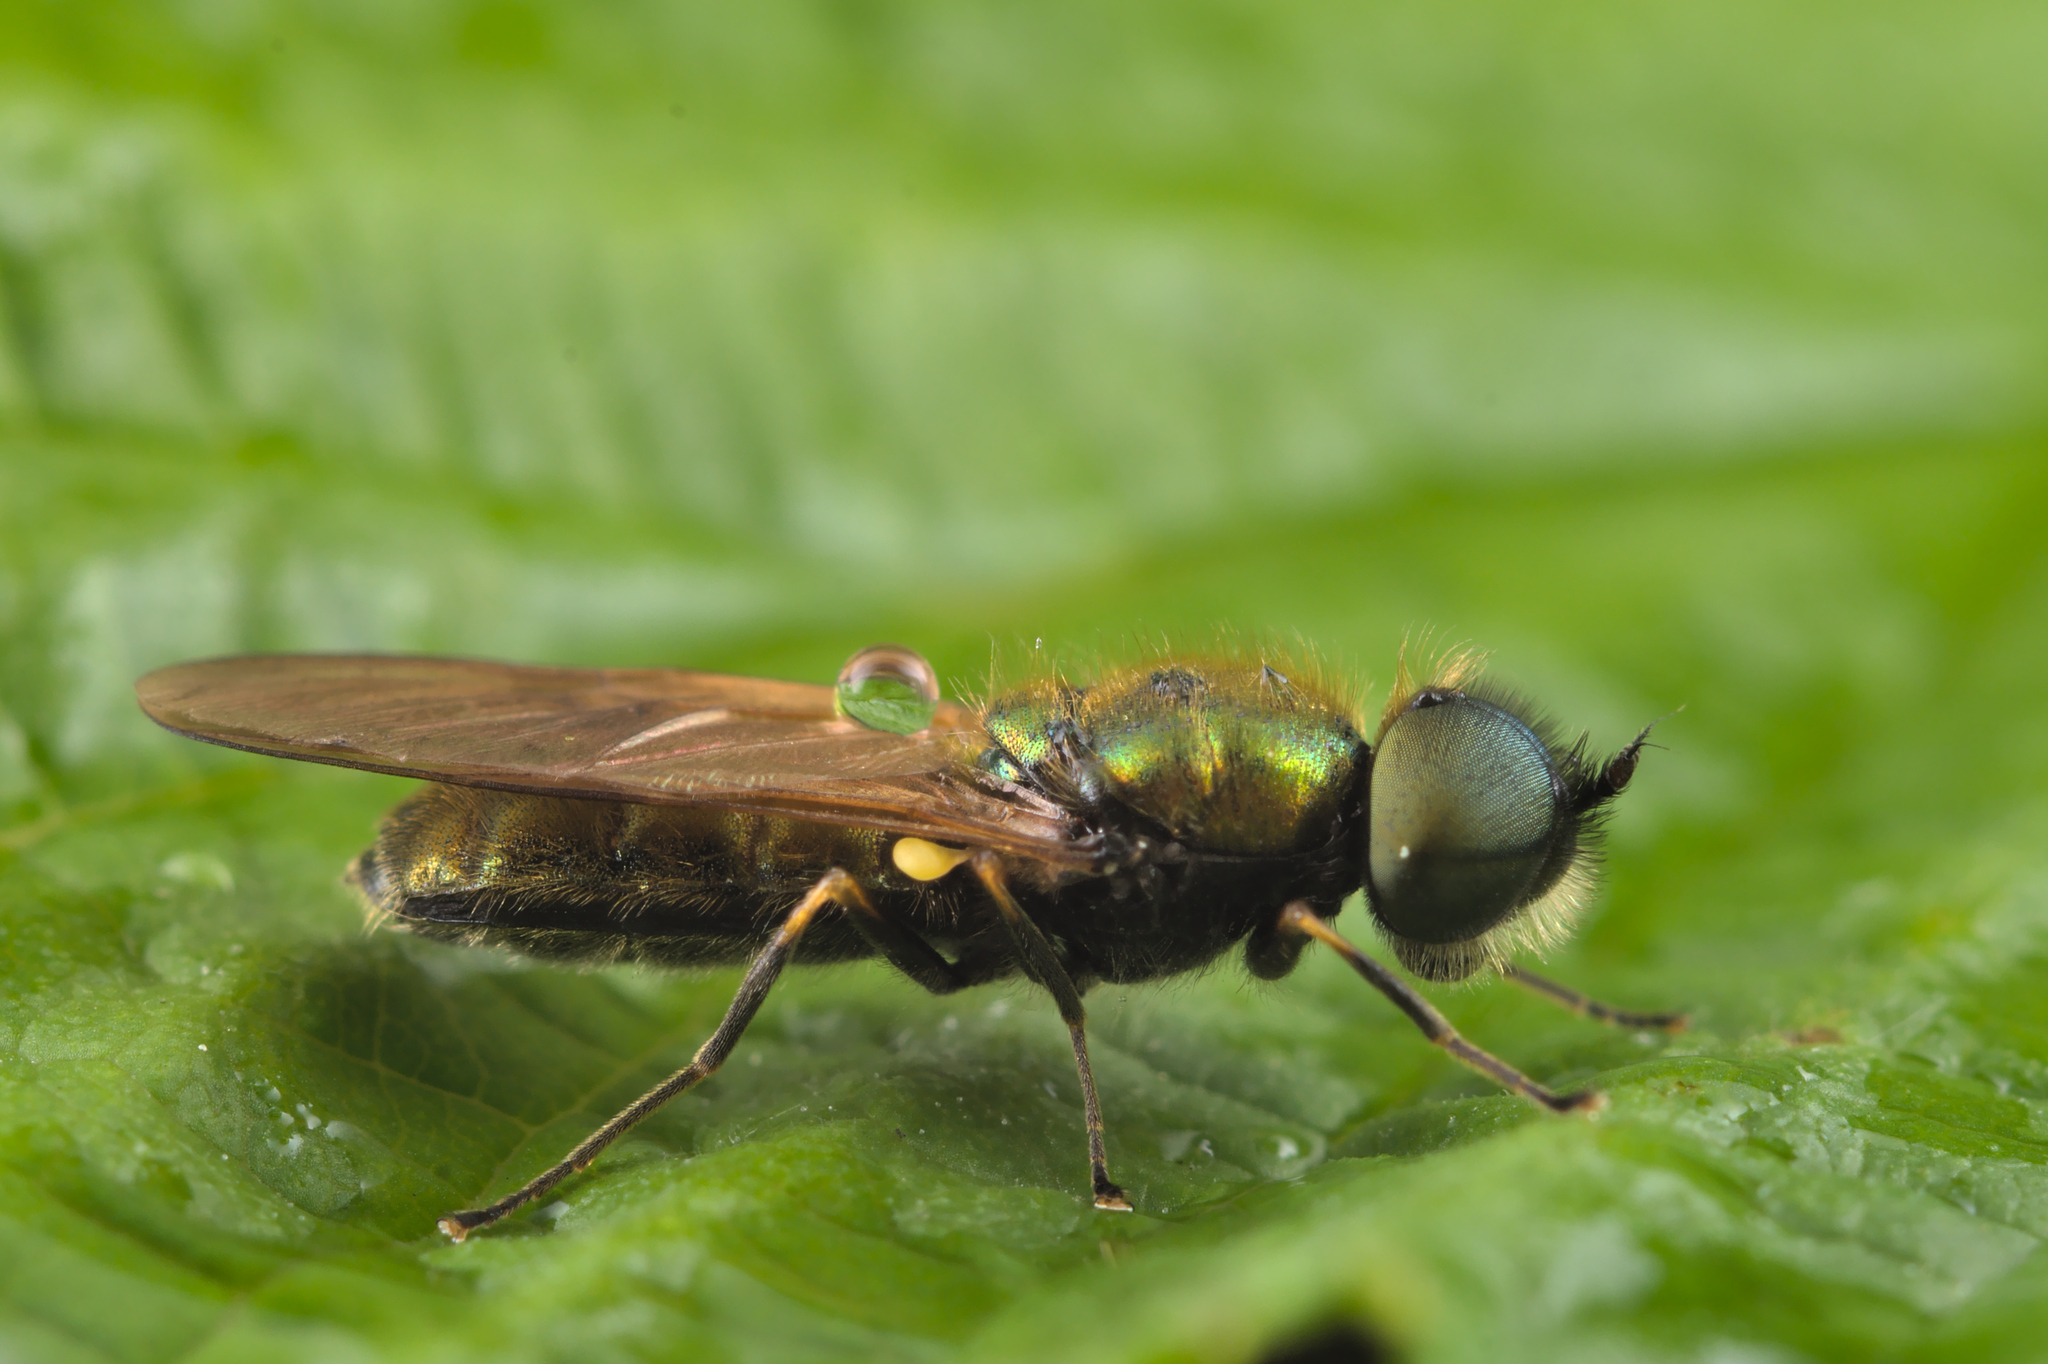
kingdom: Animalia
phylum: Arthropoda
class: Insecta
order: Diptera
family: Stratiomyidae
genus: Chloromyia
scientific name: Chloromyia formosa
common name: Soldier fly
